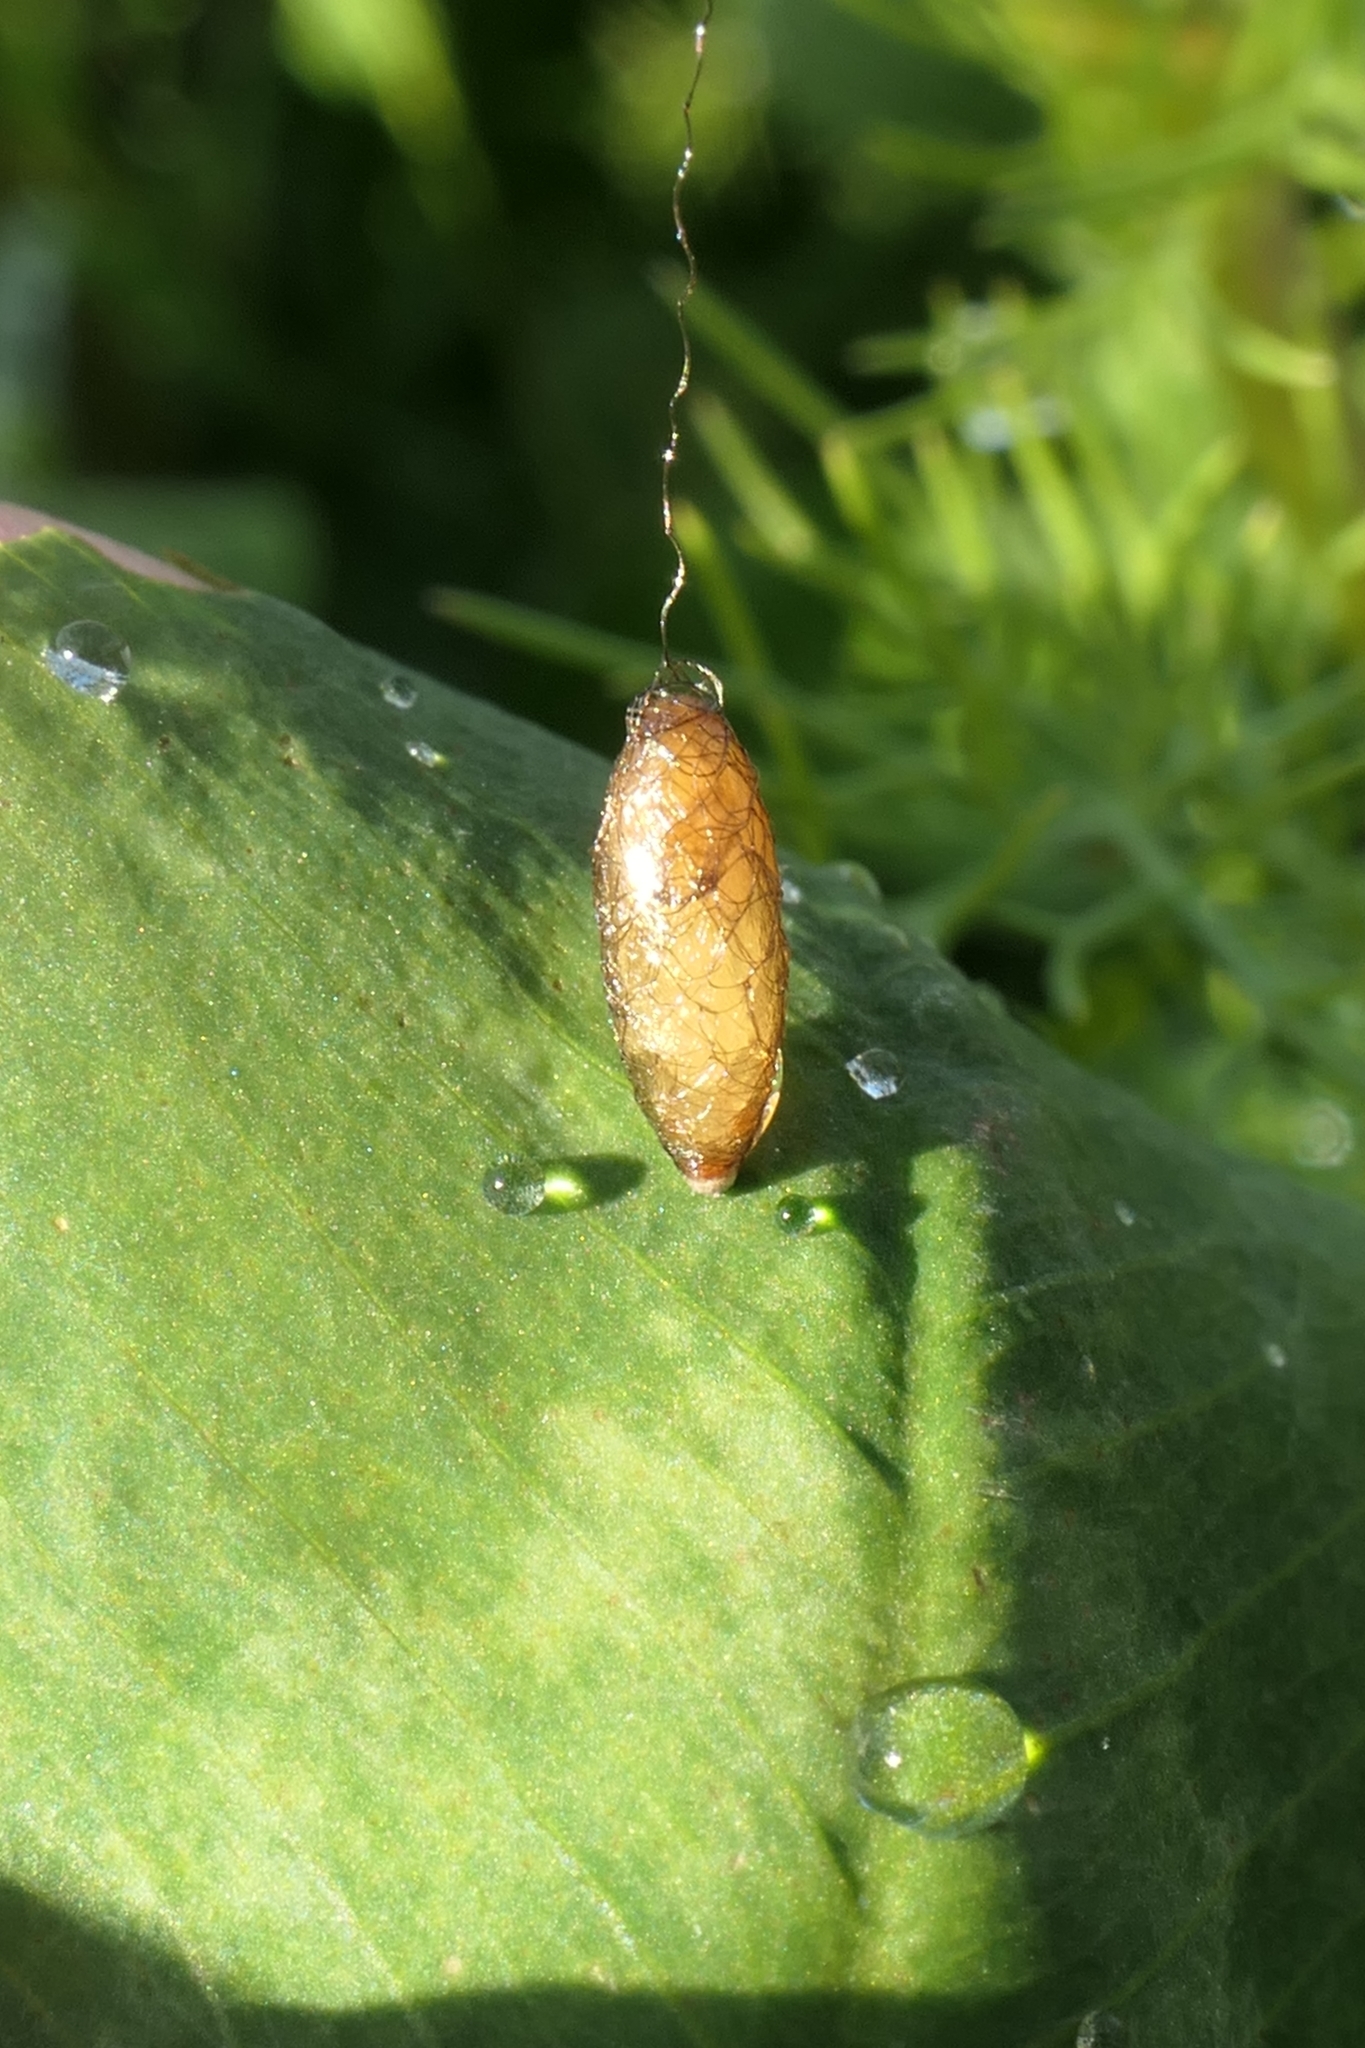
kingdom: Animalia
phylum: Arthropoda
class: Insecta
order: Hymenoptera
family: Braconidae
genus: Meteorus
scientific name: Meteorus pulchricornis
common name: Braconid wasp
